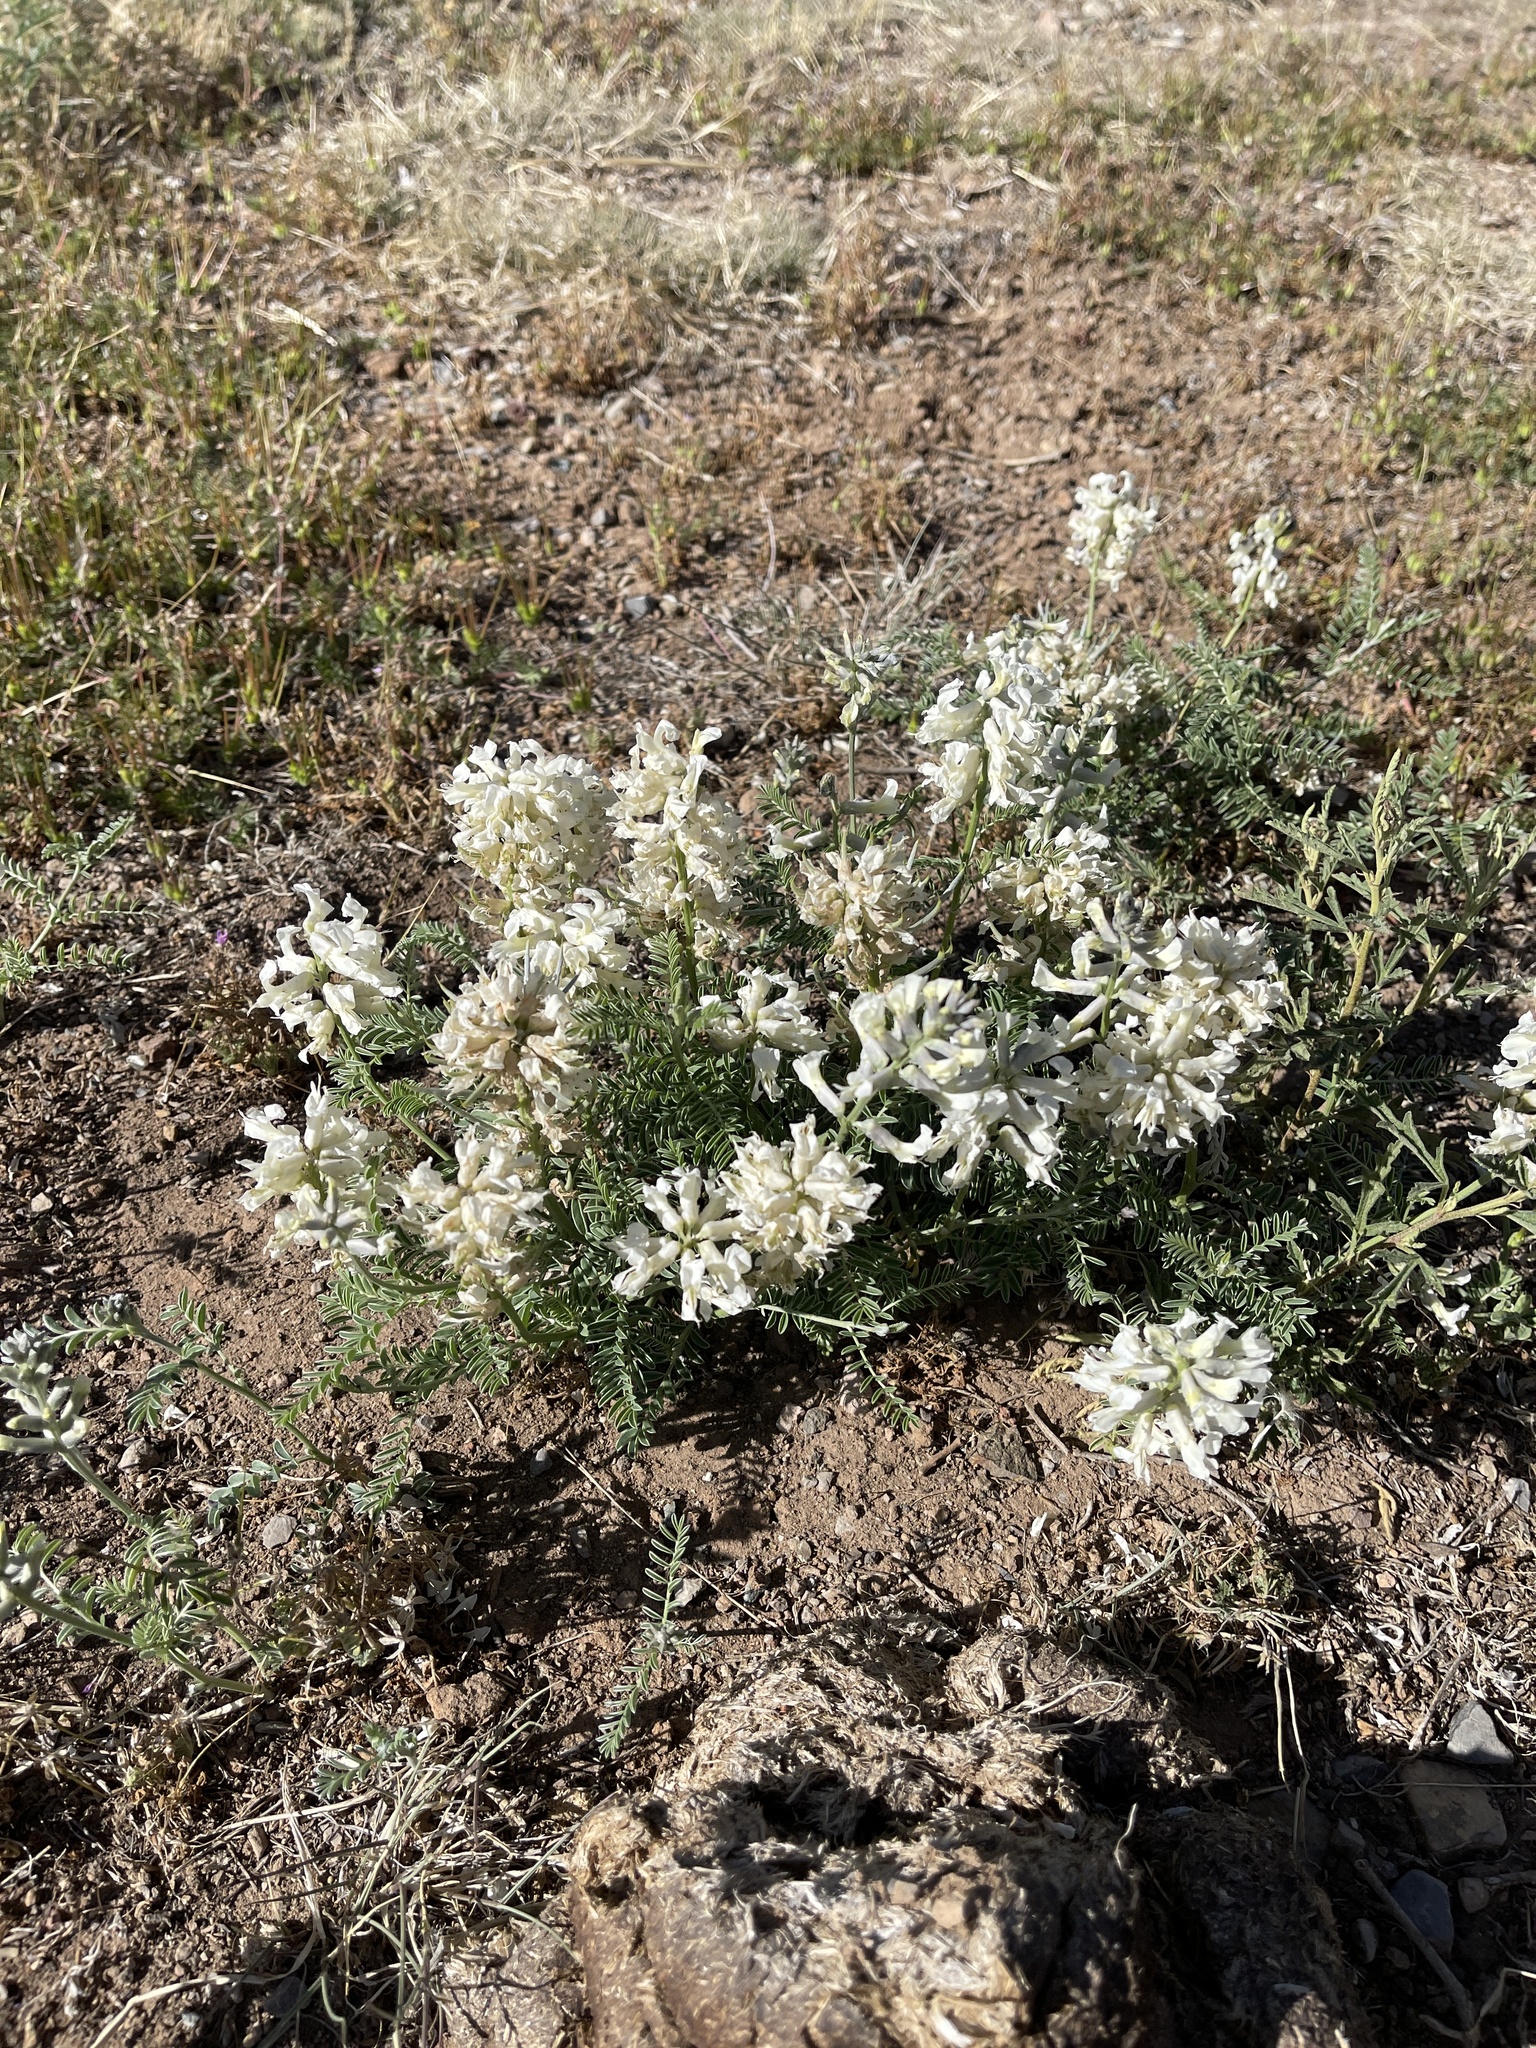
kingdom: Plantae
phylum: Tracheophyta
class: Magnoliopsida
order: Fabales
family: Fabaceae
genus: Sophora
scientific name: Sophora nuttalliana
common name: Silky sophora
